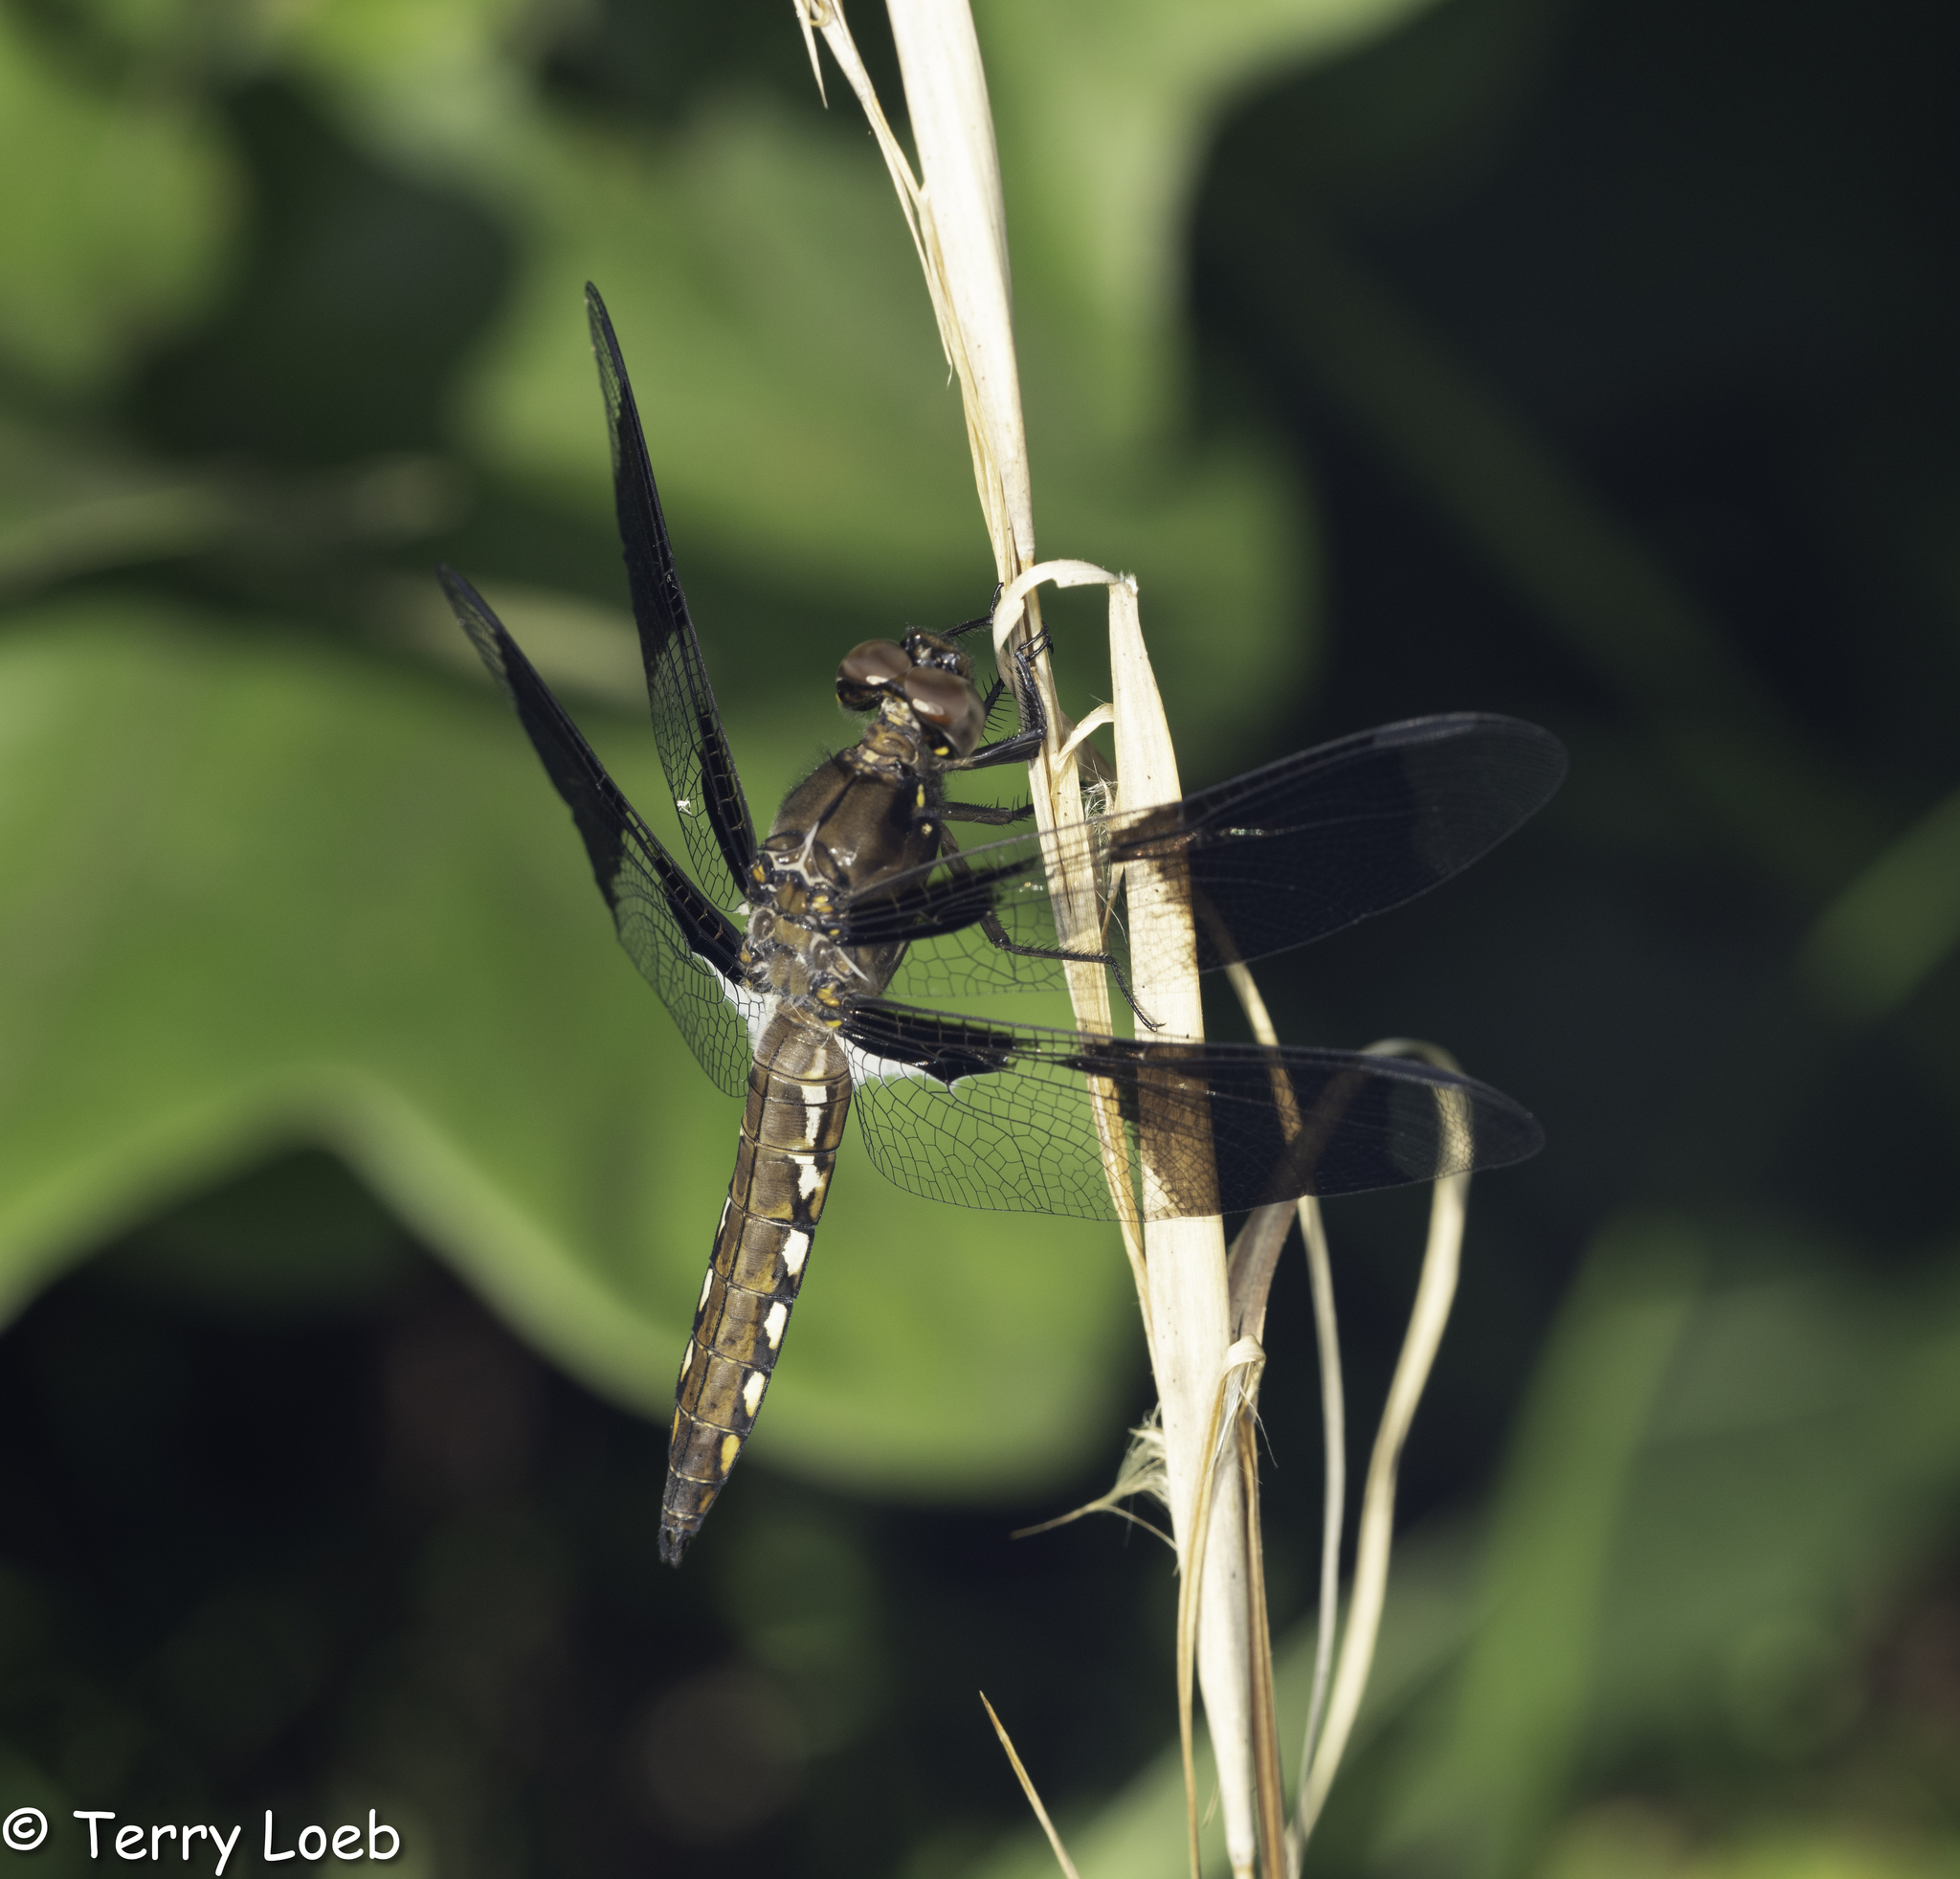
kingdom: Animalia
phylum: Arthropoda
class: Insecta
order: Odonata
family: Libellulidae
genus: Plathemis
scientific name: Plathemis lydia
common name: Common whitetail
